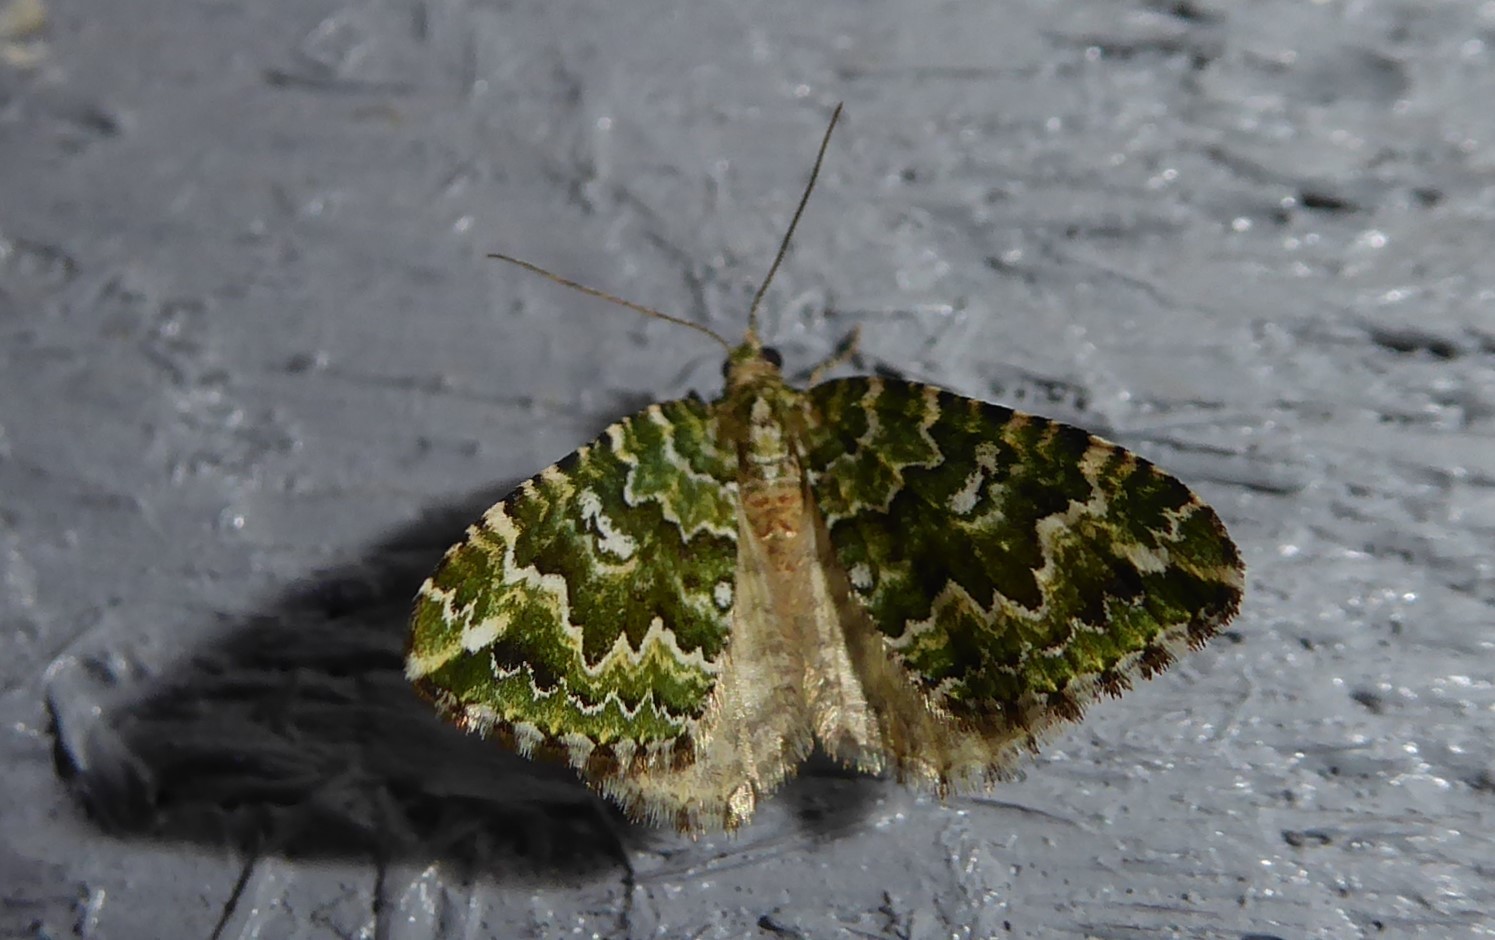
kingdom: Animalia
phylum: Arthropoda
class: Insecta
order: Lepidoptera
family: Geometridae
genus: Asaphodes
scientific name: Asaphodes beata
